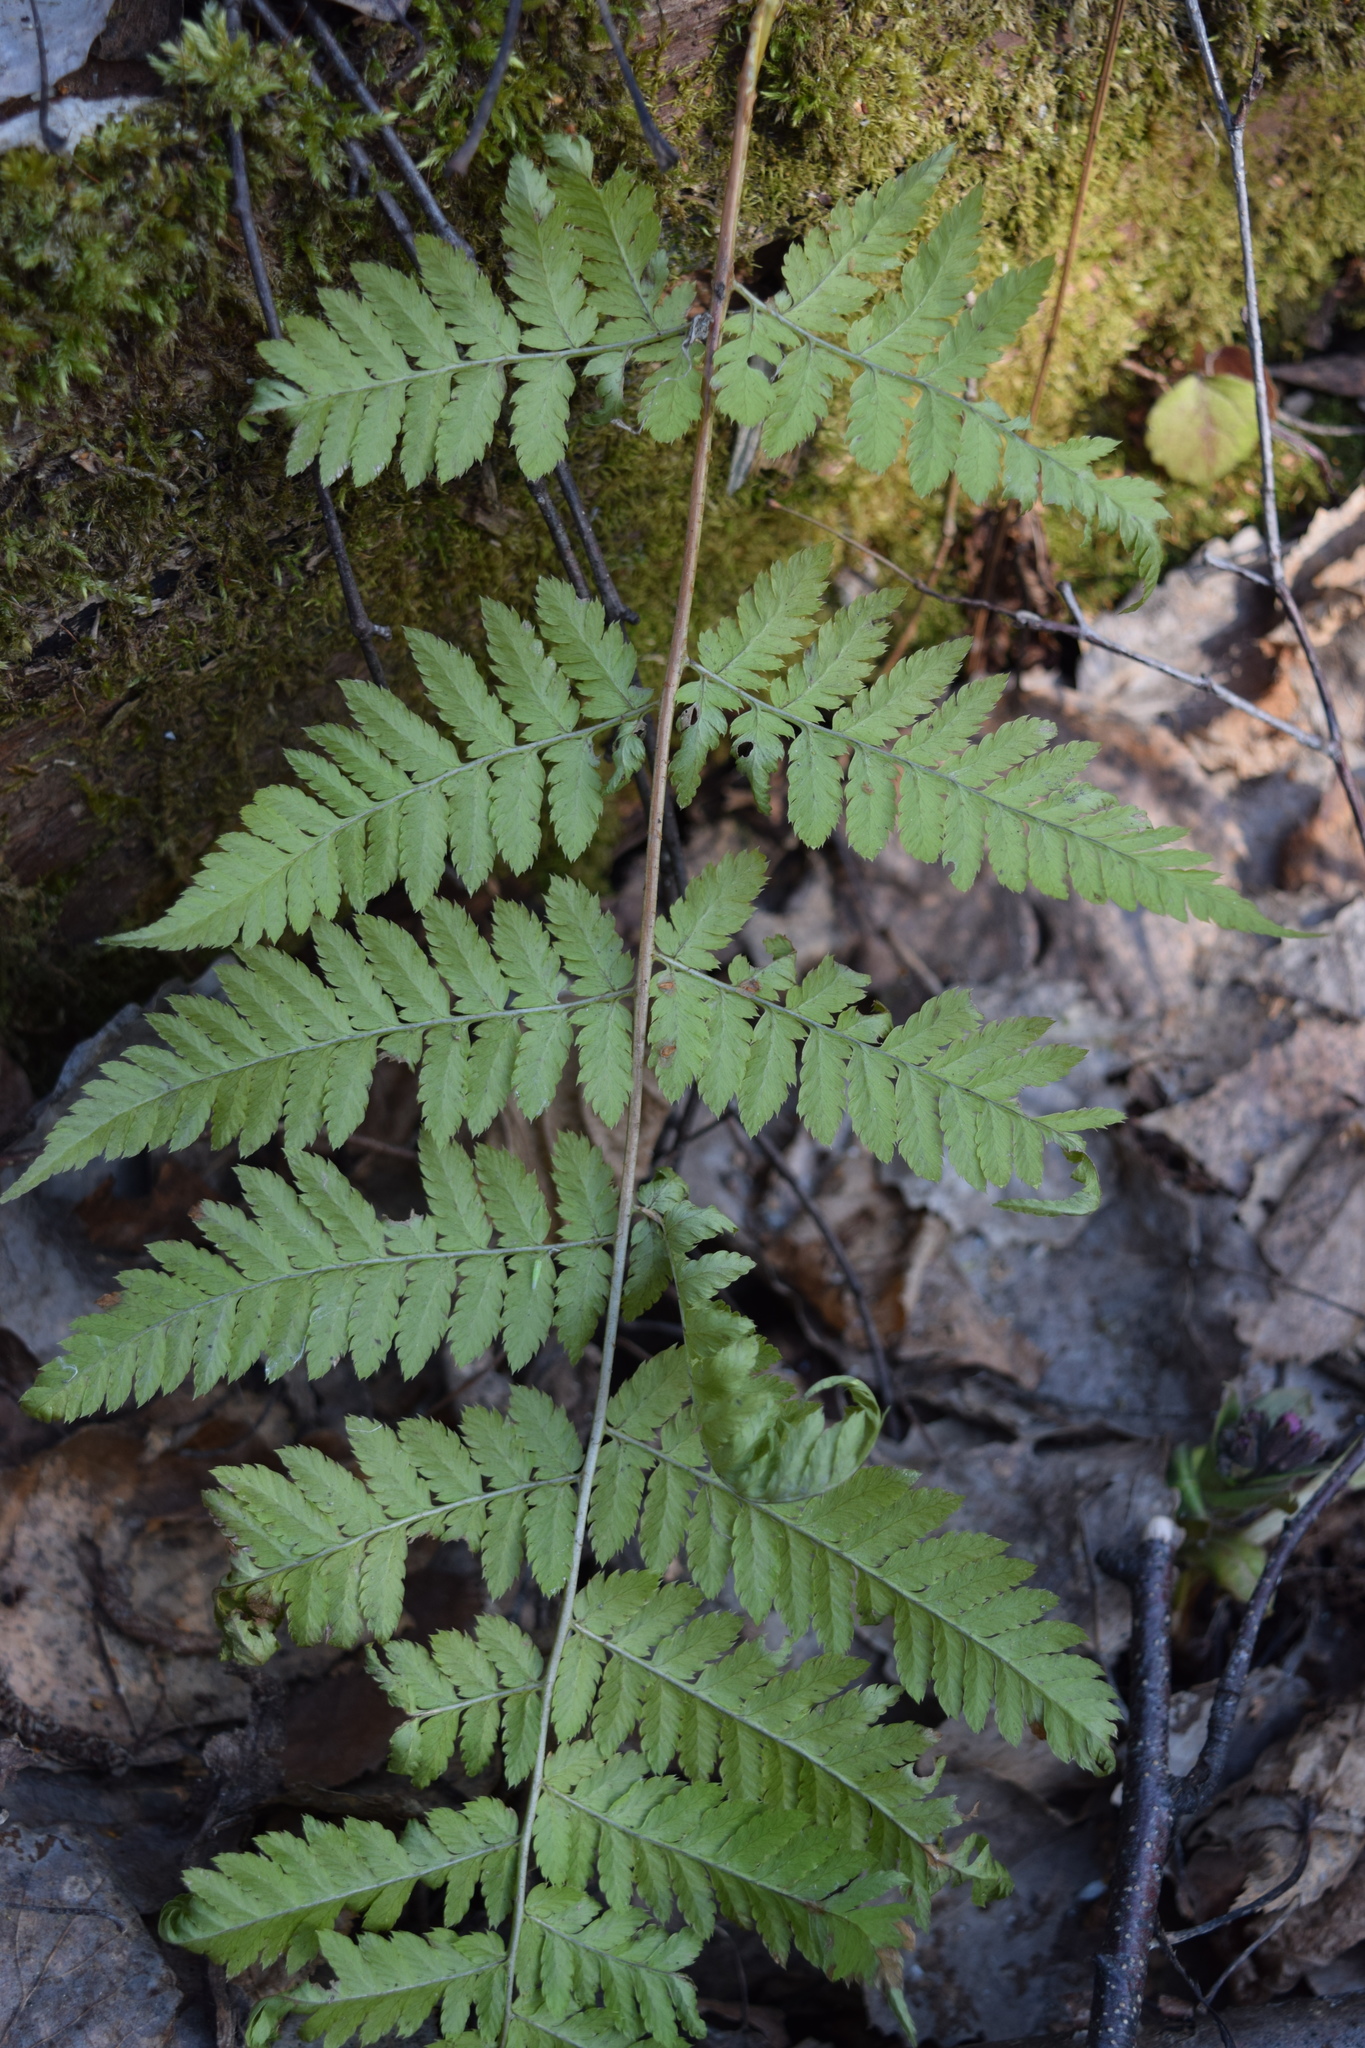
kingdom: Plantae
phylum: Tracheophyta
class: Polypodiopsida
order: Polypodiales
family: Dryopteridaceae
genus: Dryopteris
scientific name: Dryopteris carthusiana
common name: Narrow buckler-fern
